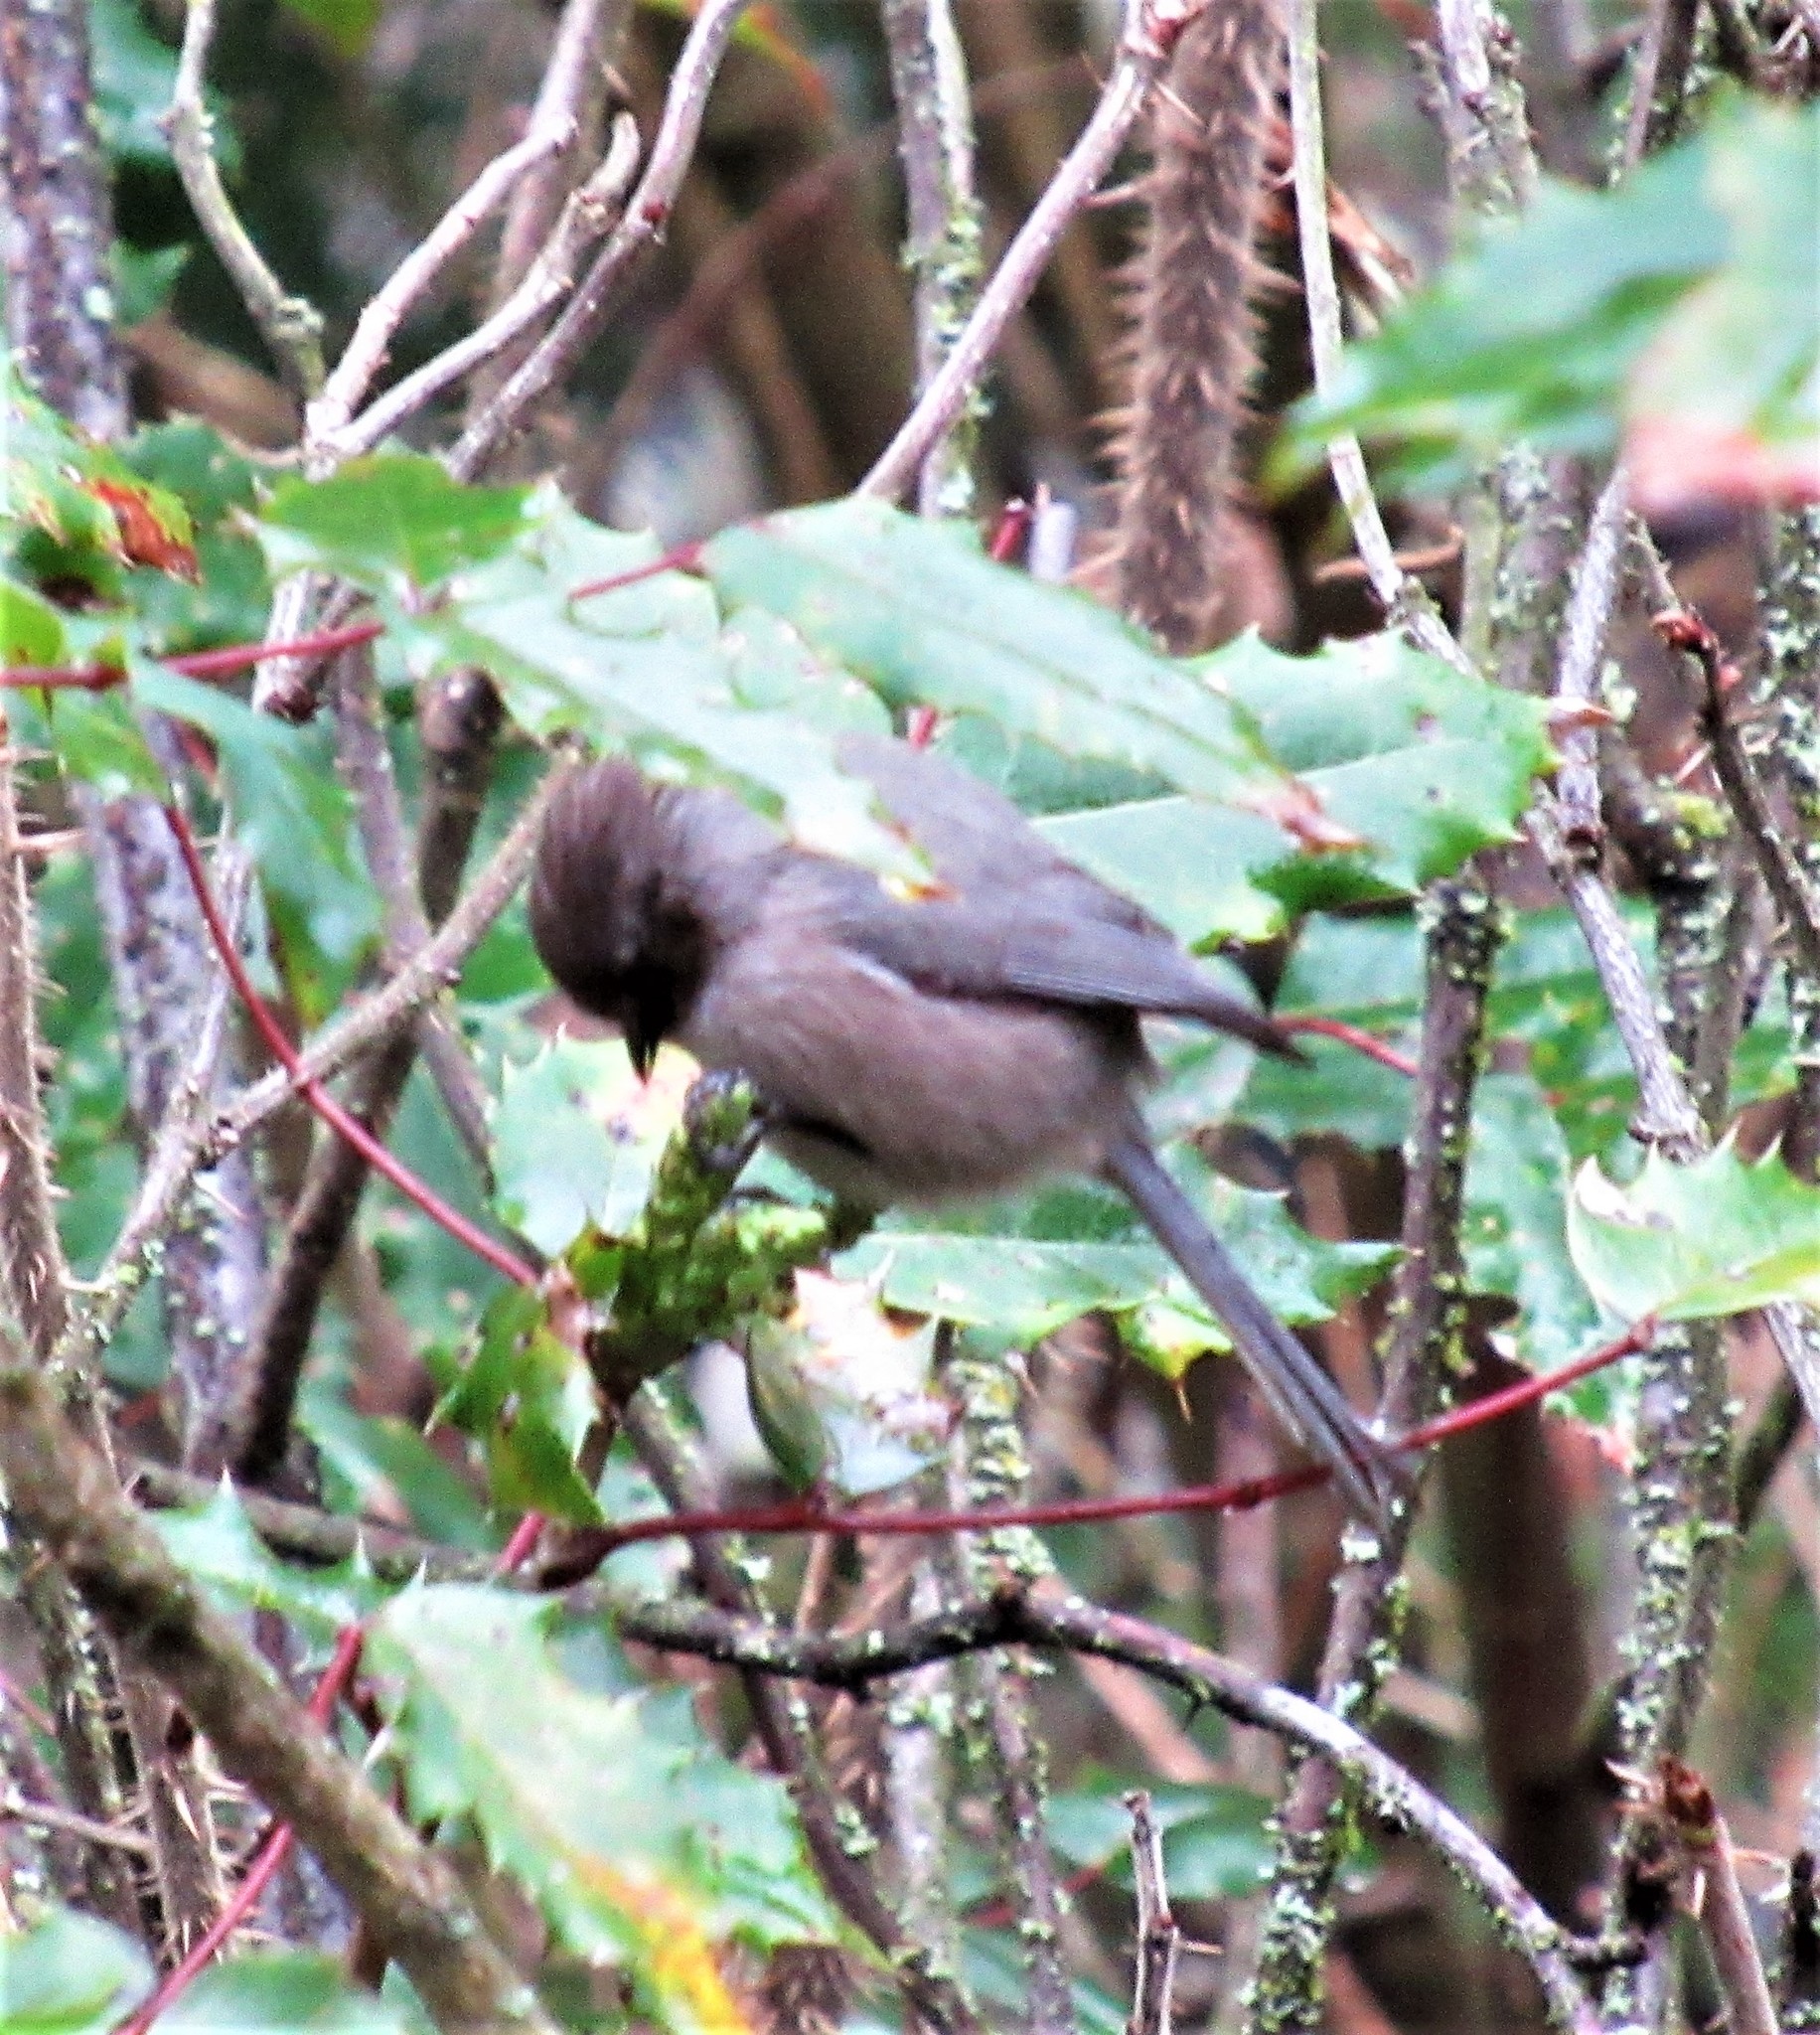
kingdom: Animalia
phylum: Chordata
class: Aves
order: Passeriformes
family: Aegithalidae
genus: Psaltriparus
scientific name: Psaltriparus minimus
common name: American bushtit
